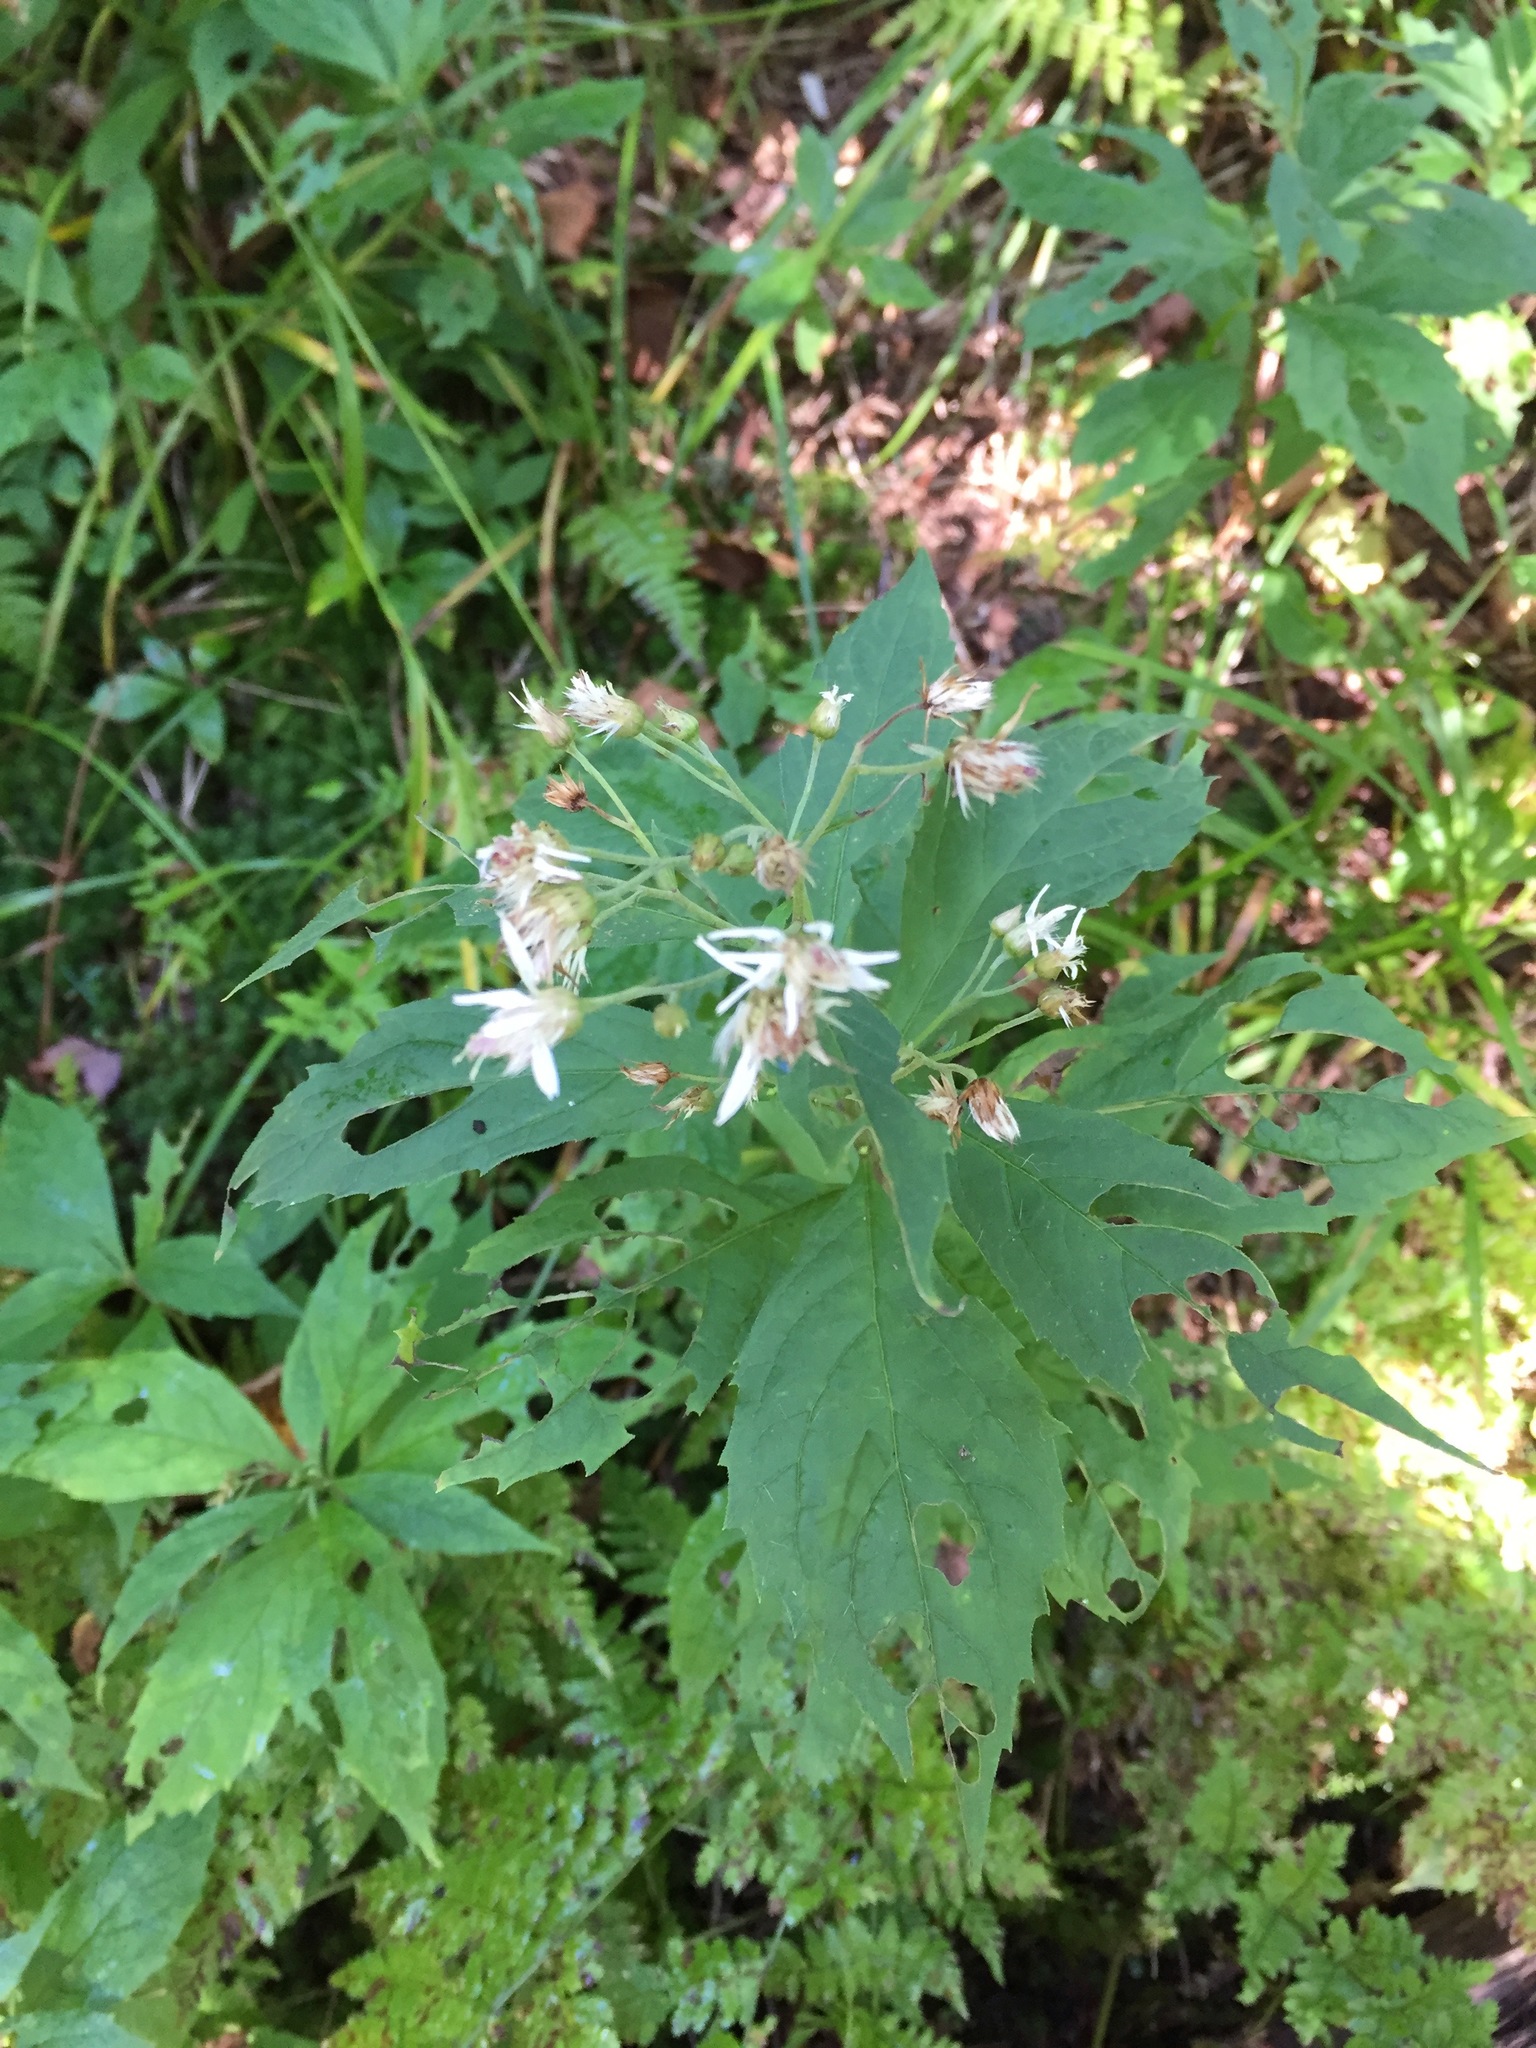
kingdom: Plantae
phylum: Tracheophyta
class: Magnoliopsida
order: Asterales
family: Asteraceae
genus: Oclemena
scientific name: Oclemena acuminata
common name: Mountain aster
